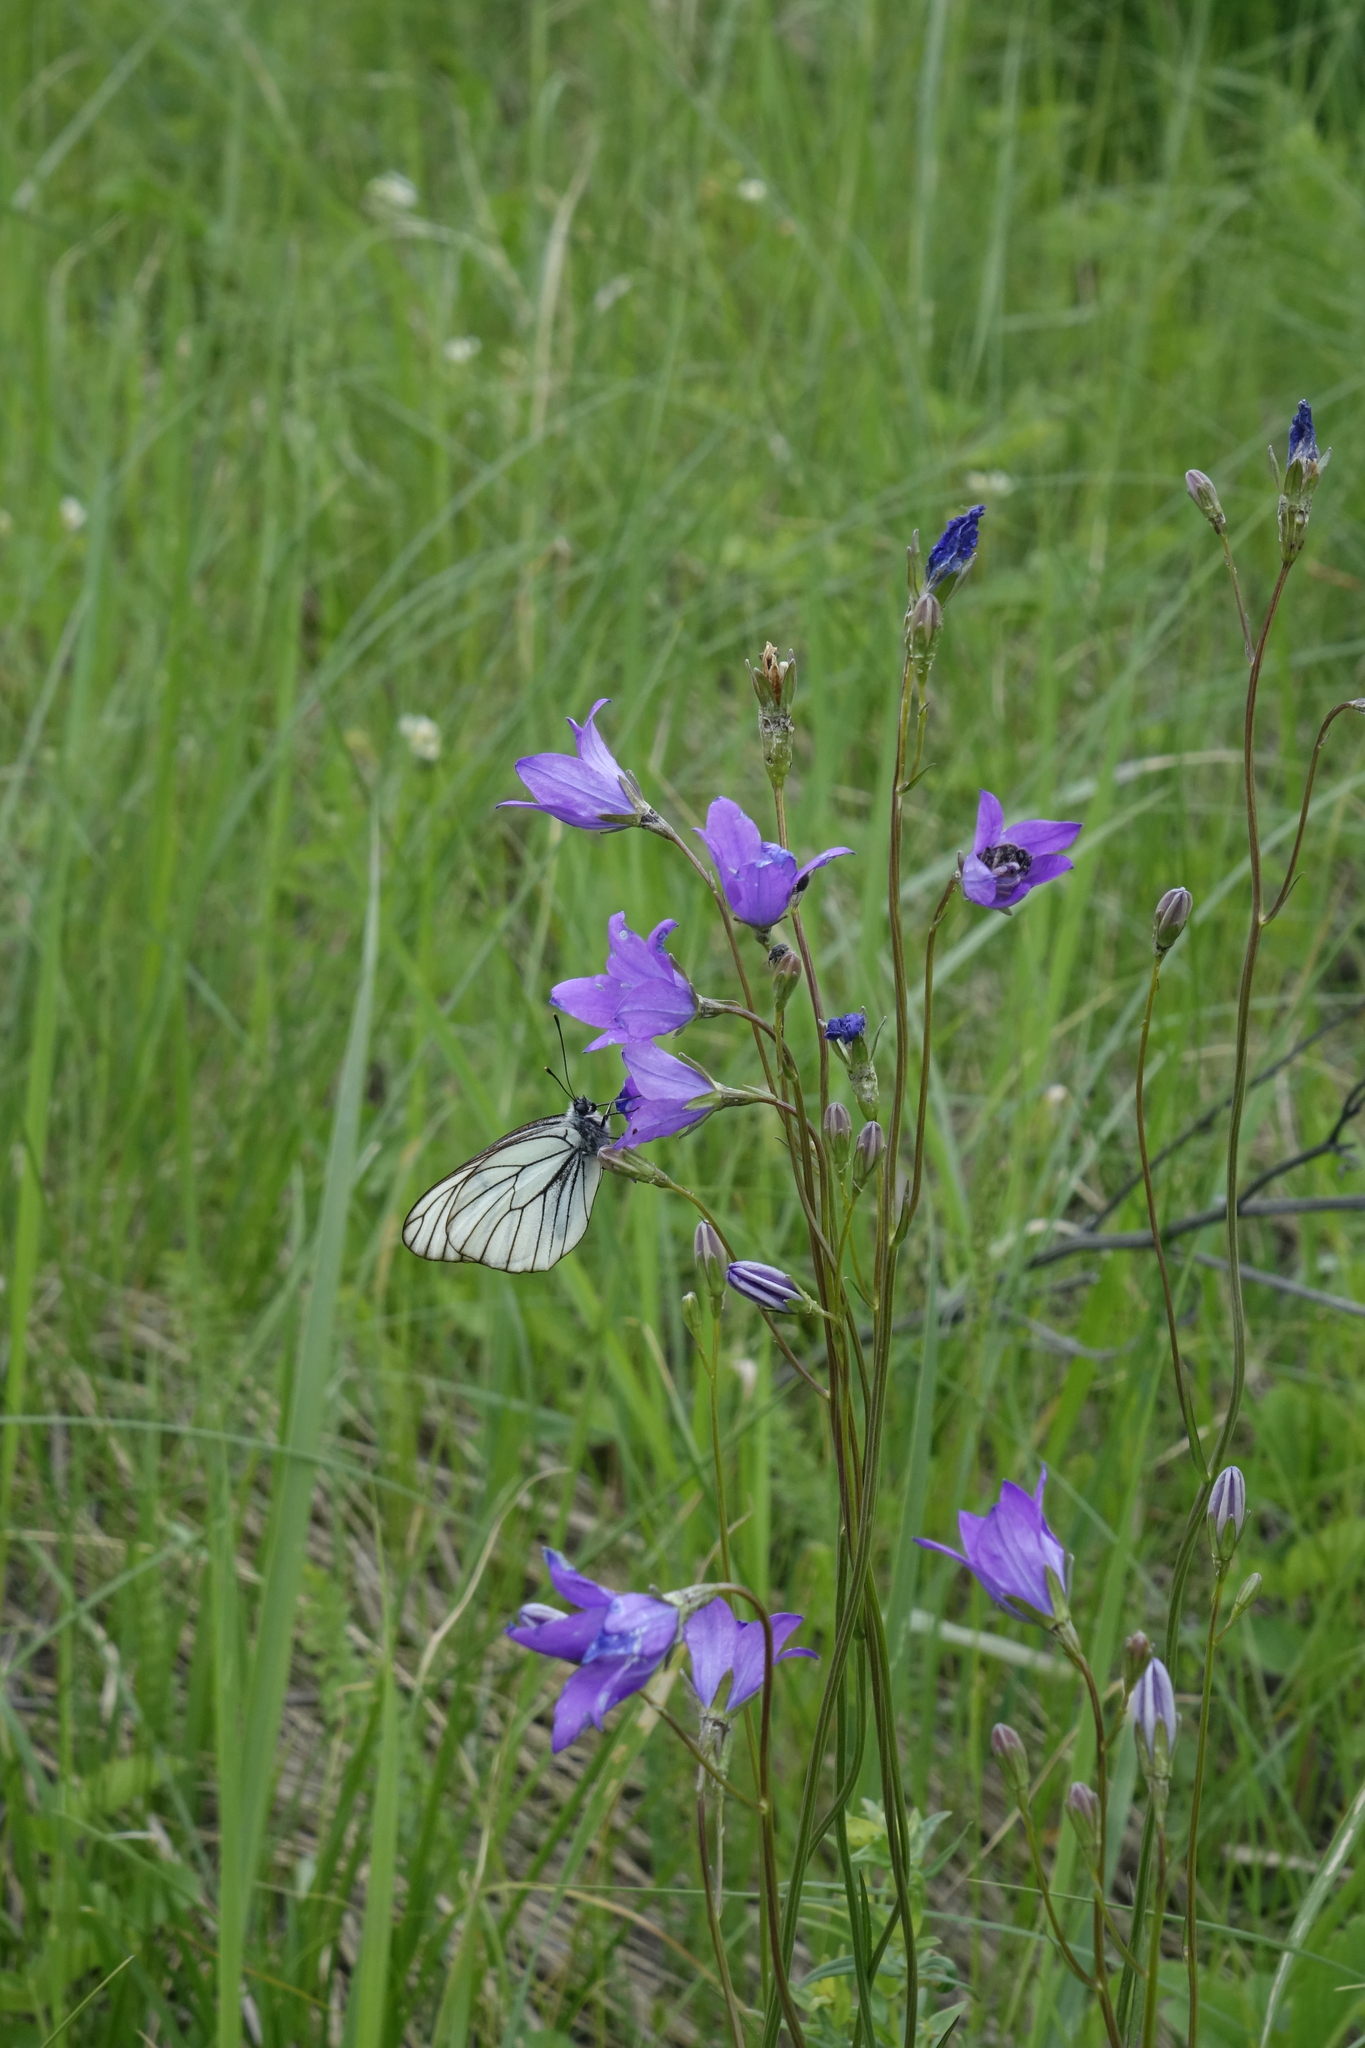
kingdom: Plantae
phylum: Tracheophyta
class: Magnoliopsida
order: Asterales
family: Campanulaceae
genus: Campanula
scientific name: Campanula stevenii
